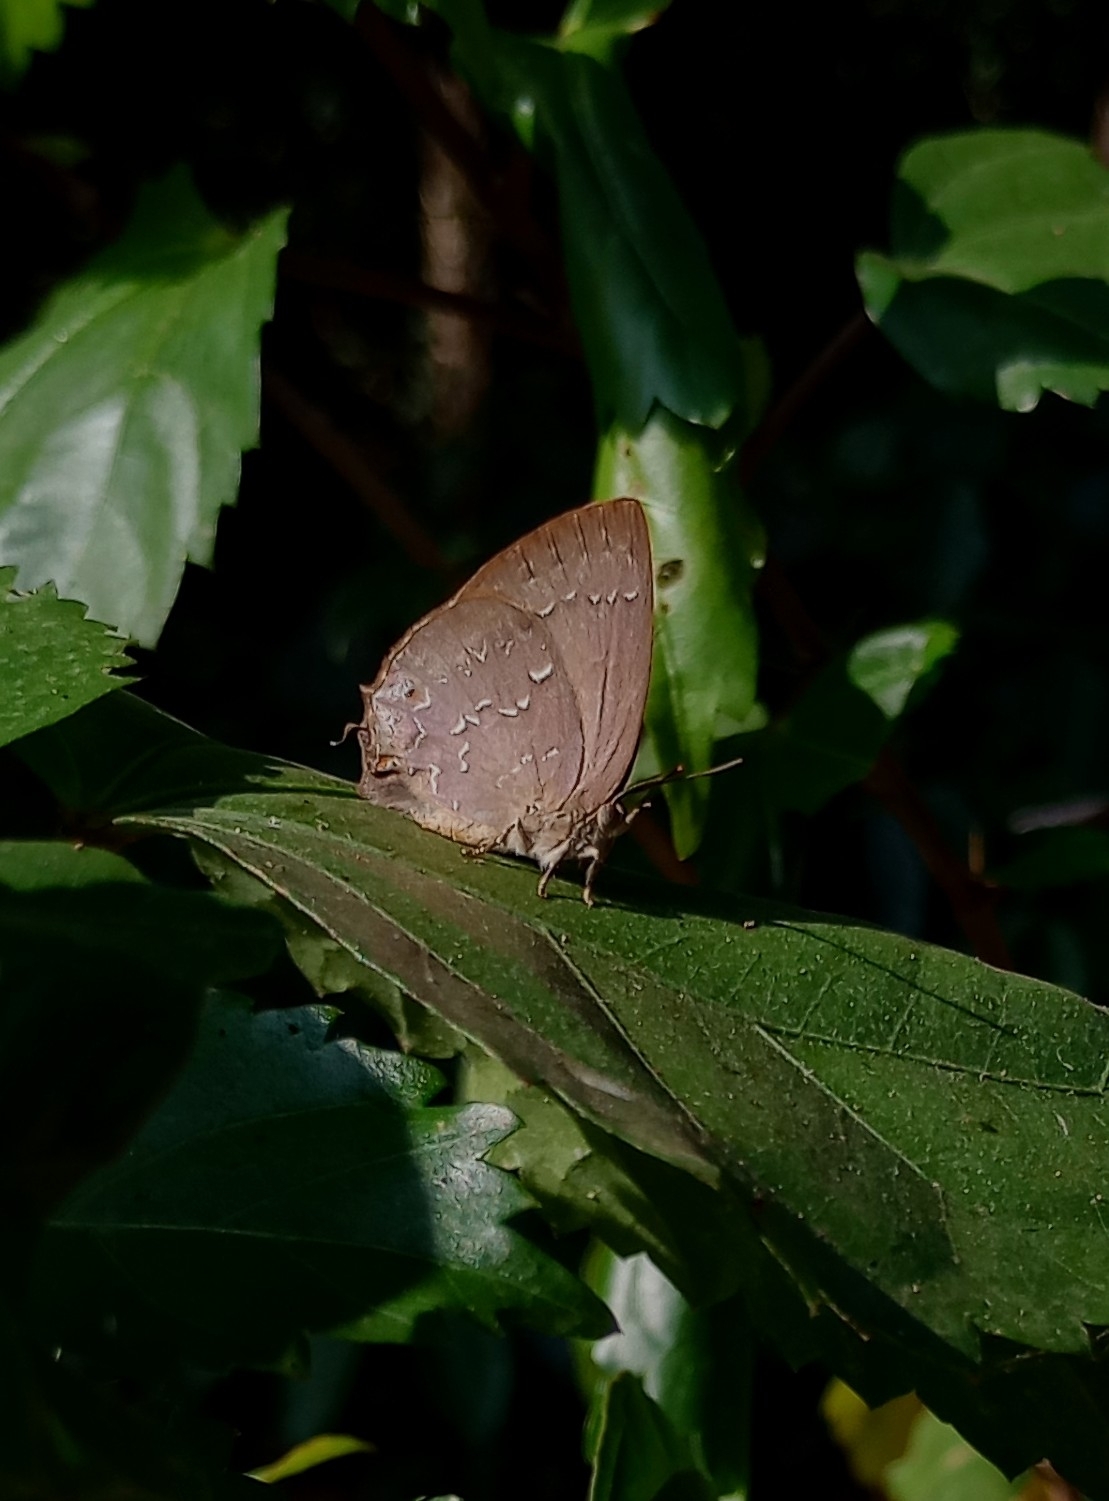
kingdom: Animalia
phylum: Arthropoda
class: Insecta
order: Lepidoptera
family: Lycaenidae
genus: Zinaspa
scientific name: Zinaspa todara
